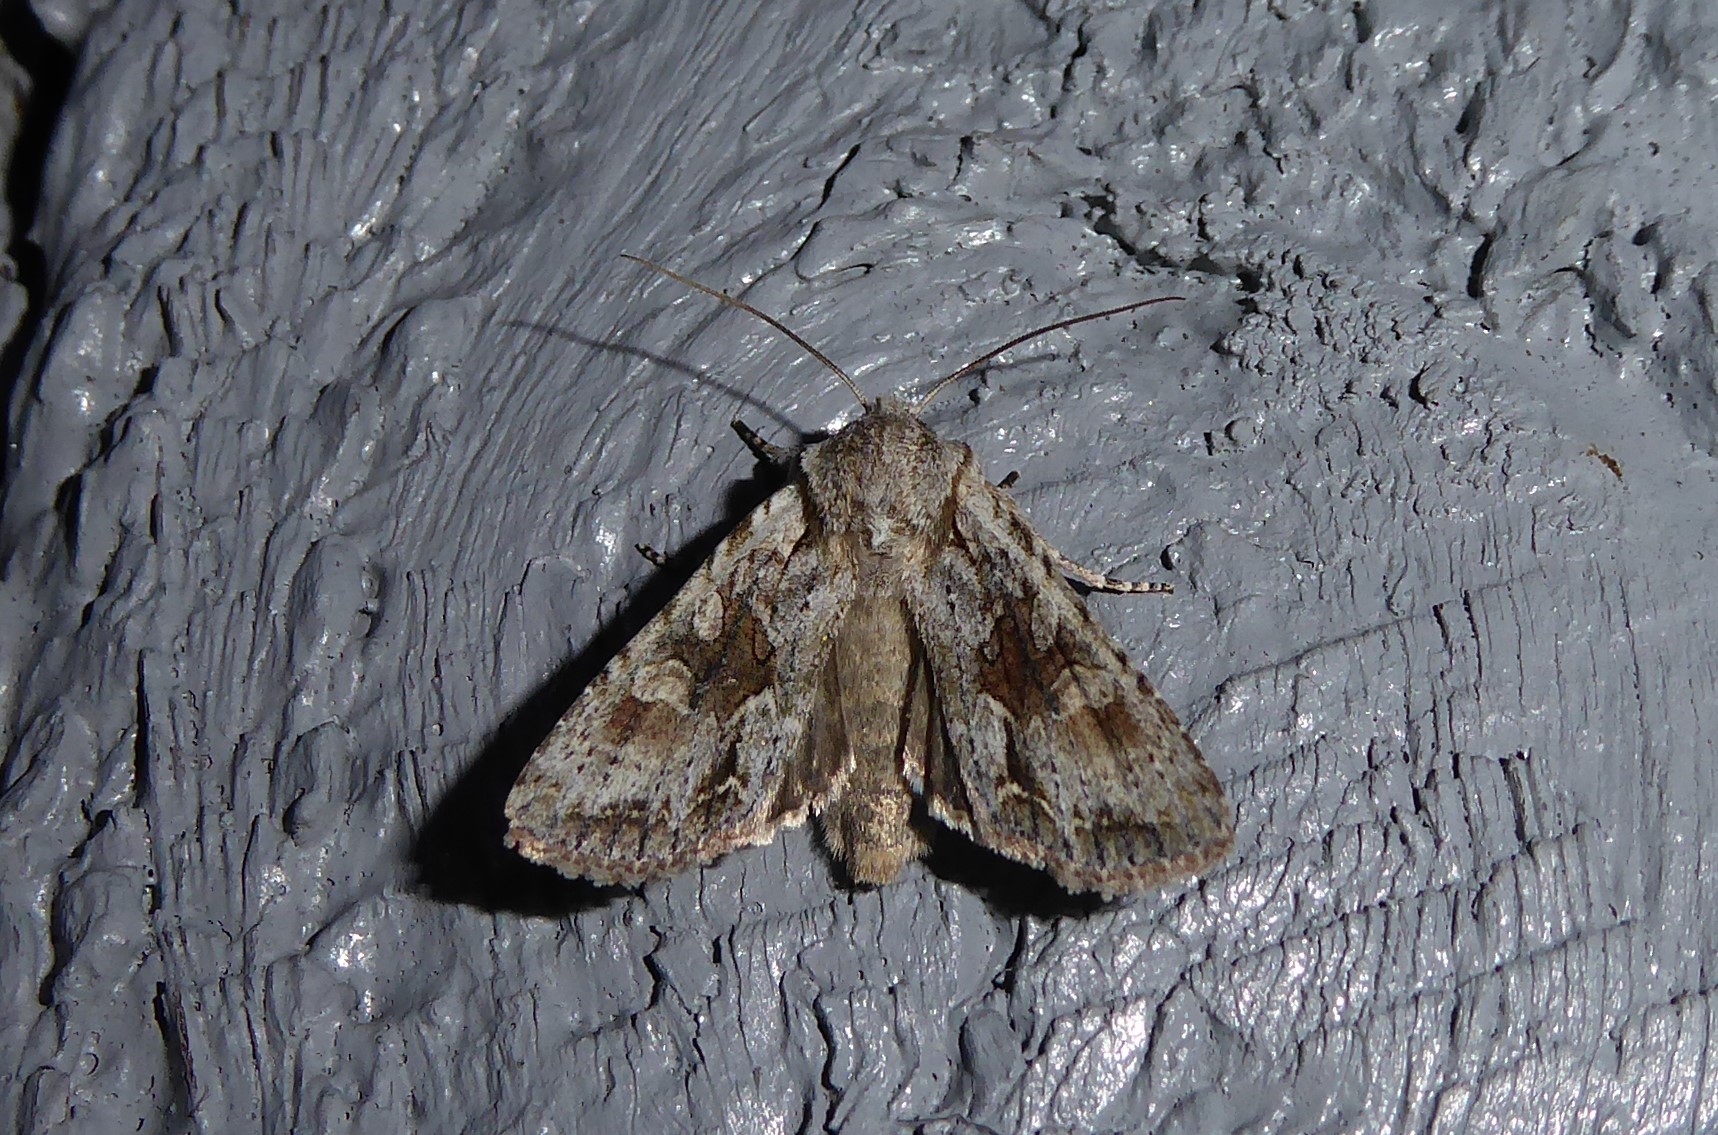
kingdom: Animalia
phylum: Arthropoda
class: Insecta
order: Lepidoptera
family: Noctuidae
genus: Ichneutica
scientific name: Ichneutica mutans
